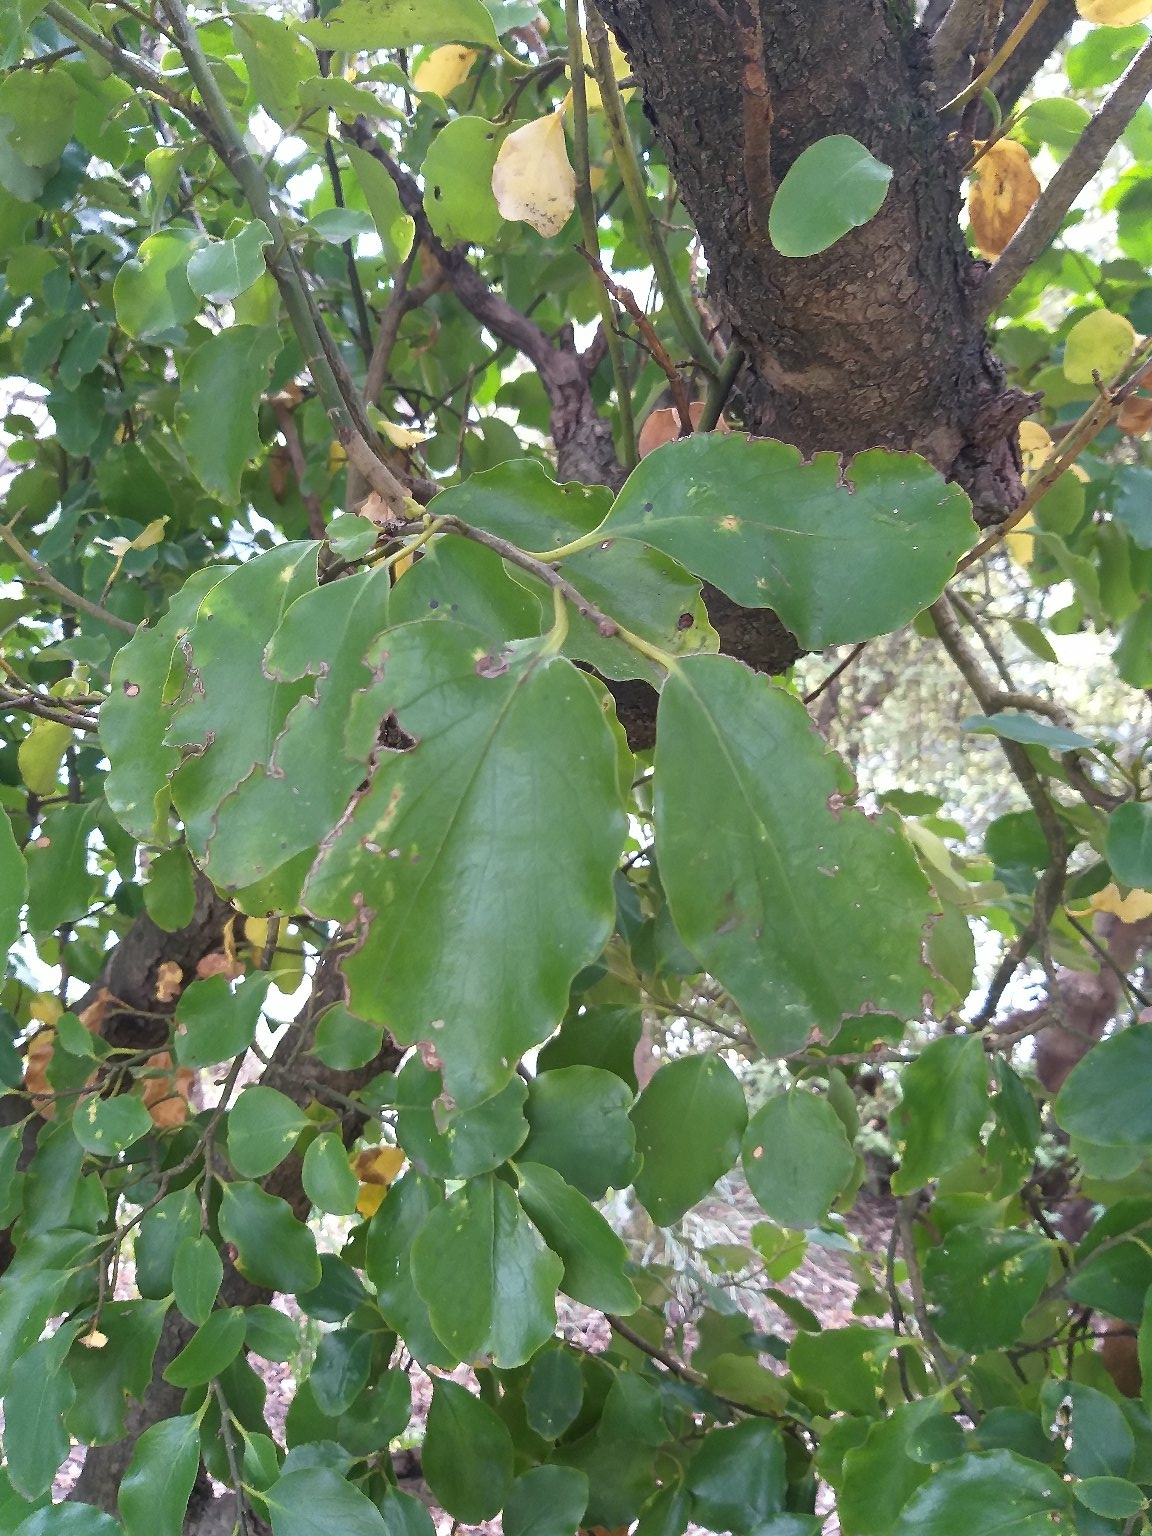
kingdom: Plantae
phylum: Tracheophyta
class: Magnoliopsida
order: Apiales
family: Griseliniaceae
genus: Griselinia
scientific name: Griselinia littoralis
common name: New zealand broadleaf
